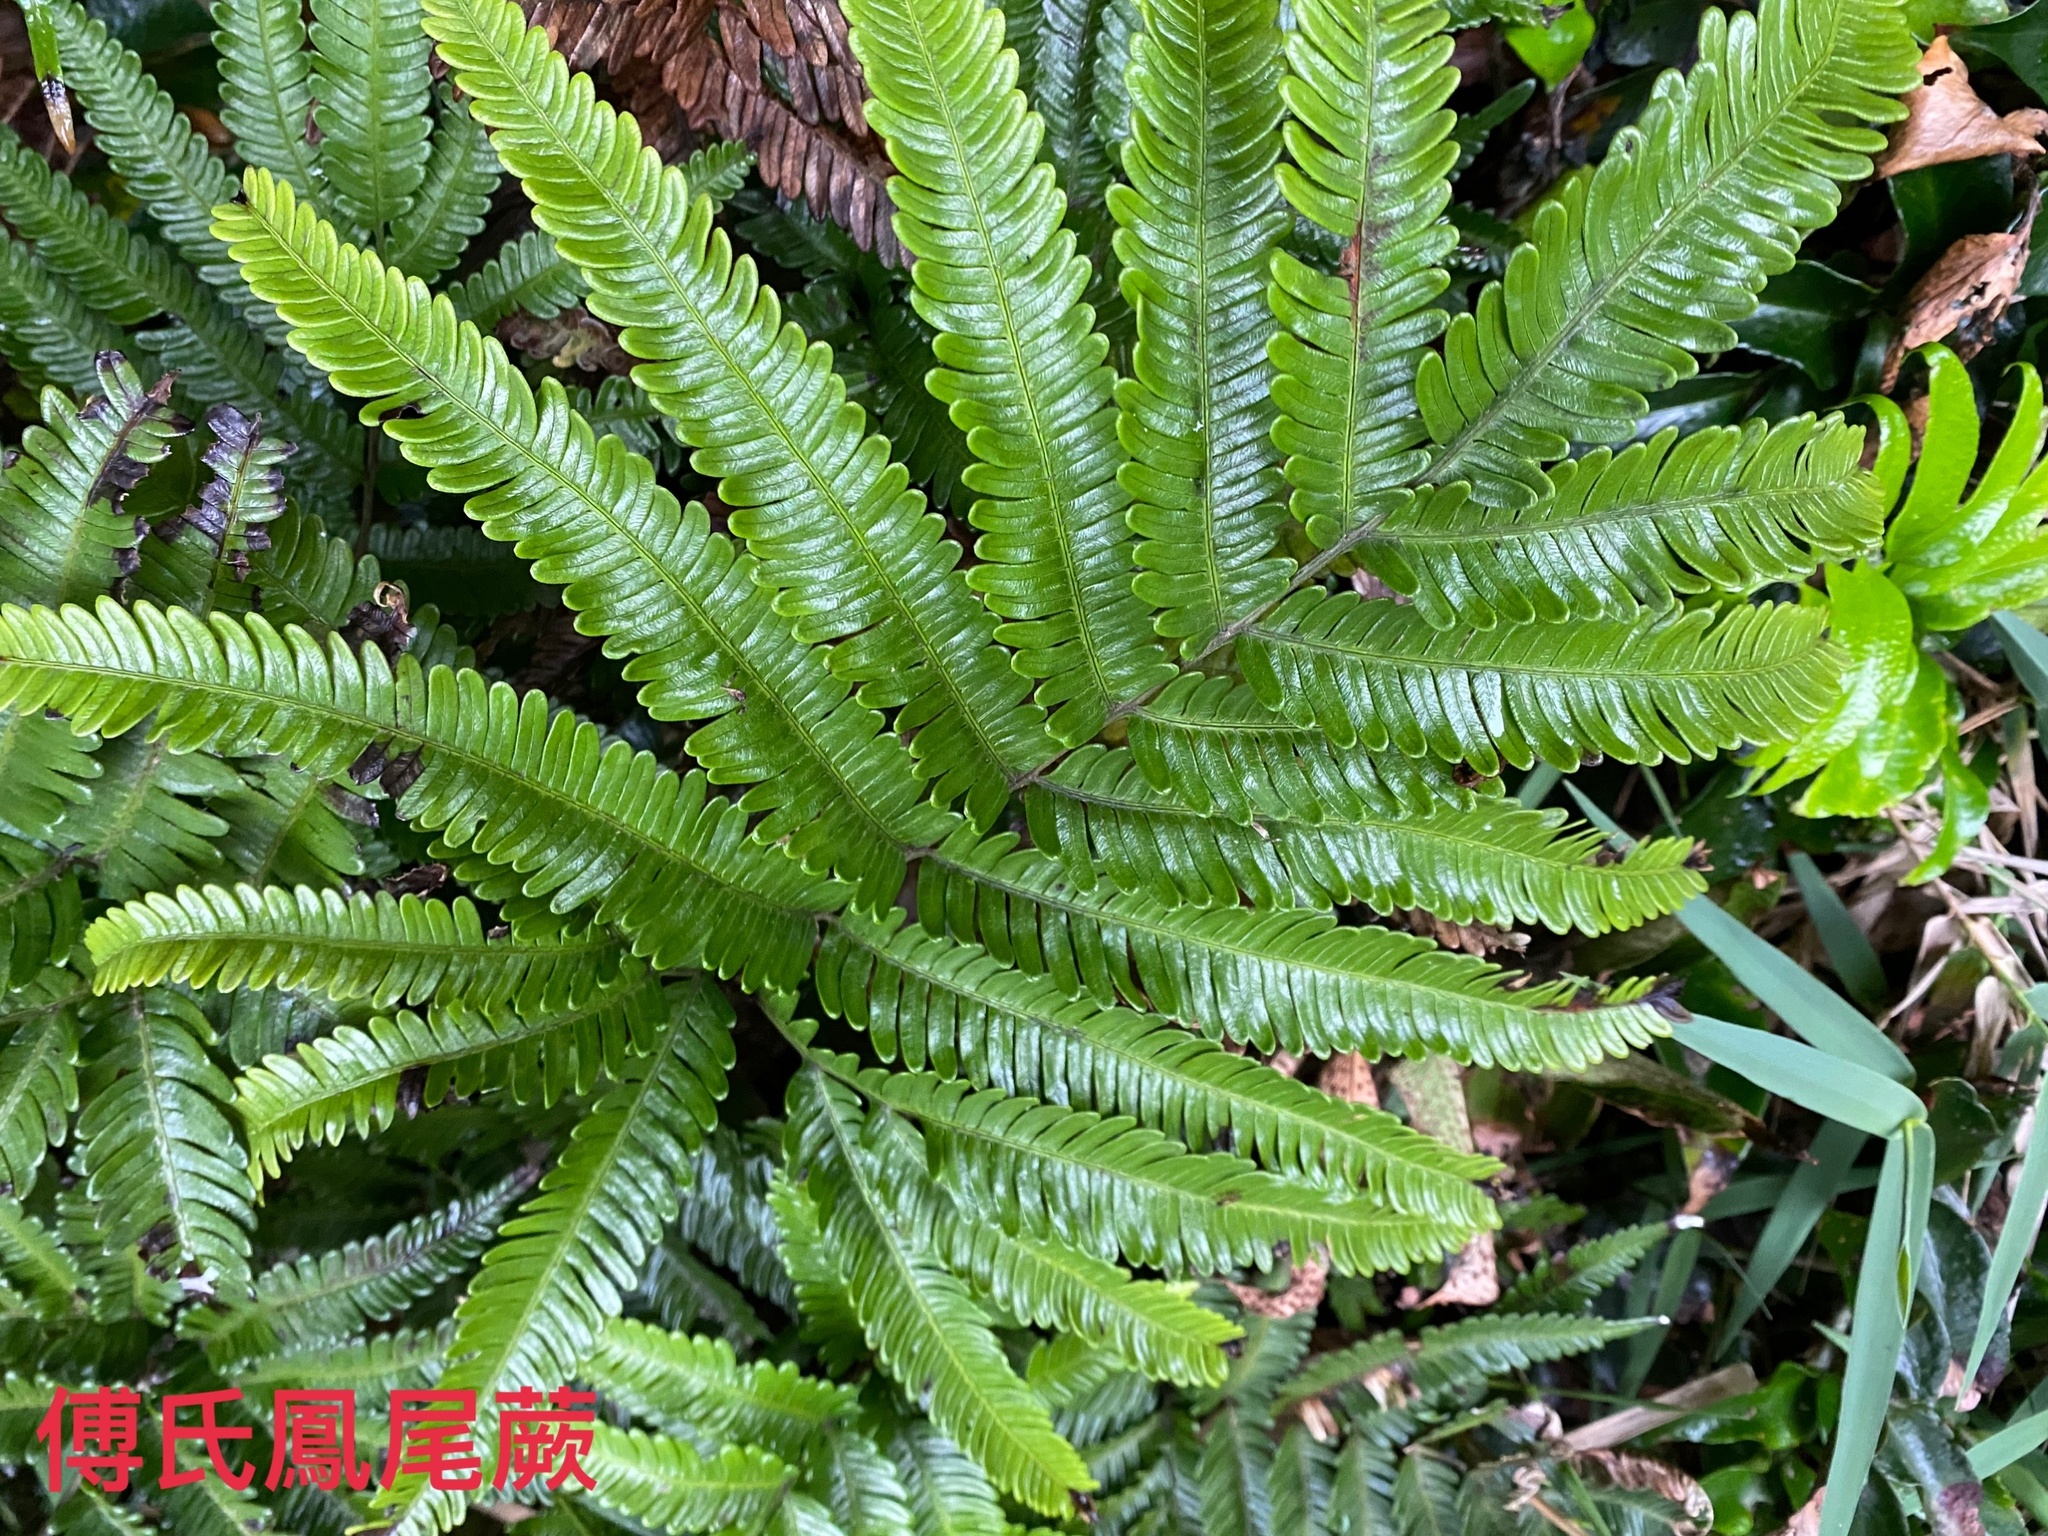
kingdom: Plantae
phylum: Tracheophyta
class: Polypodiopsida
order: Polypodiales
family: Pteridaceae
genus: Pteris
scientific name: Pteris fauriei
